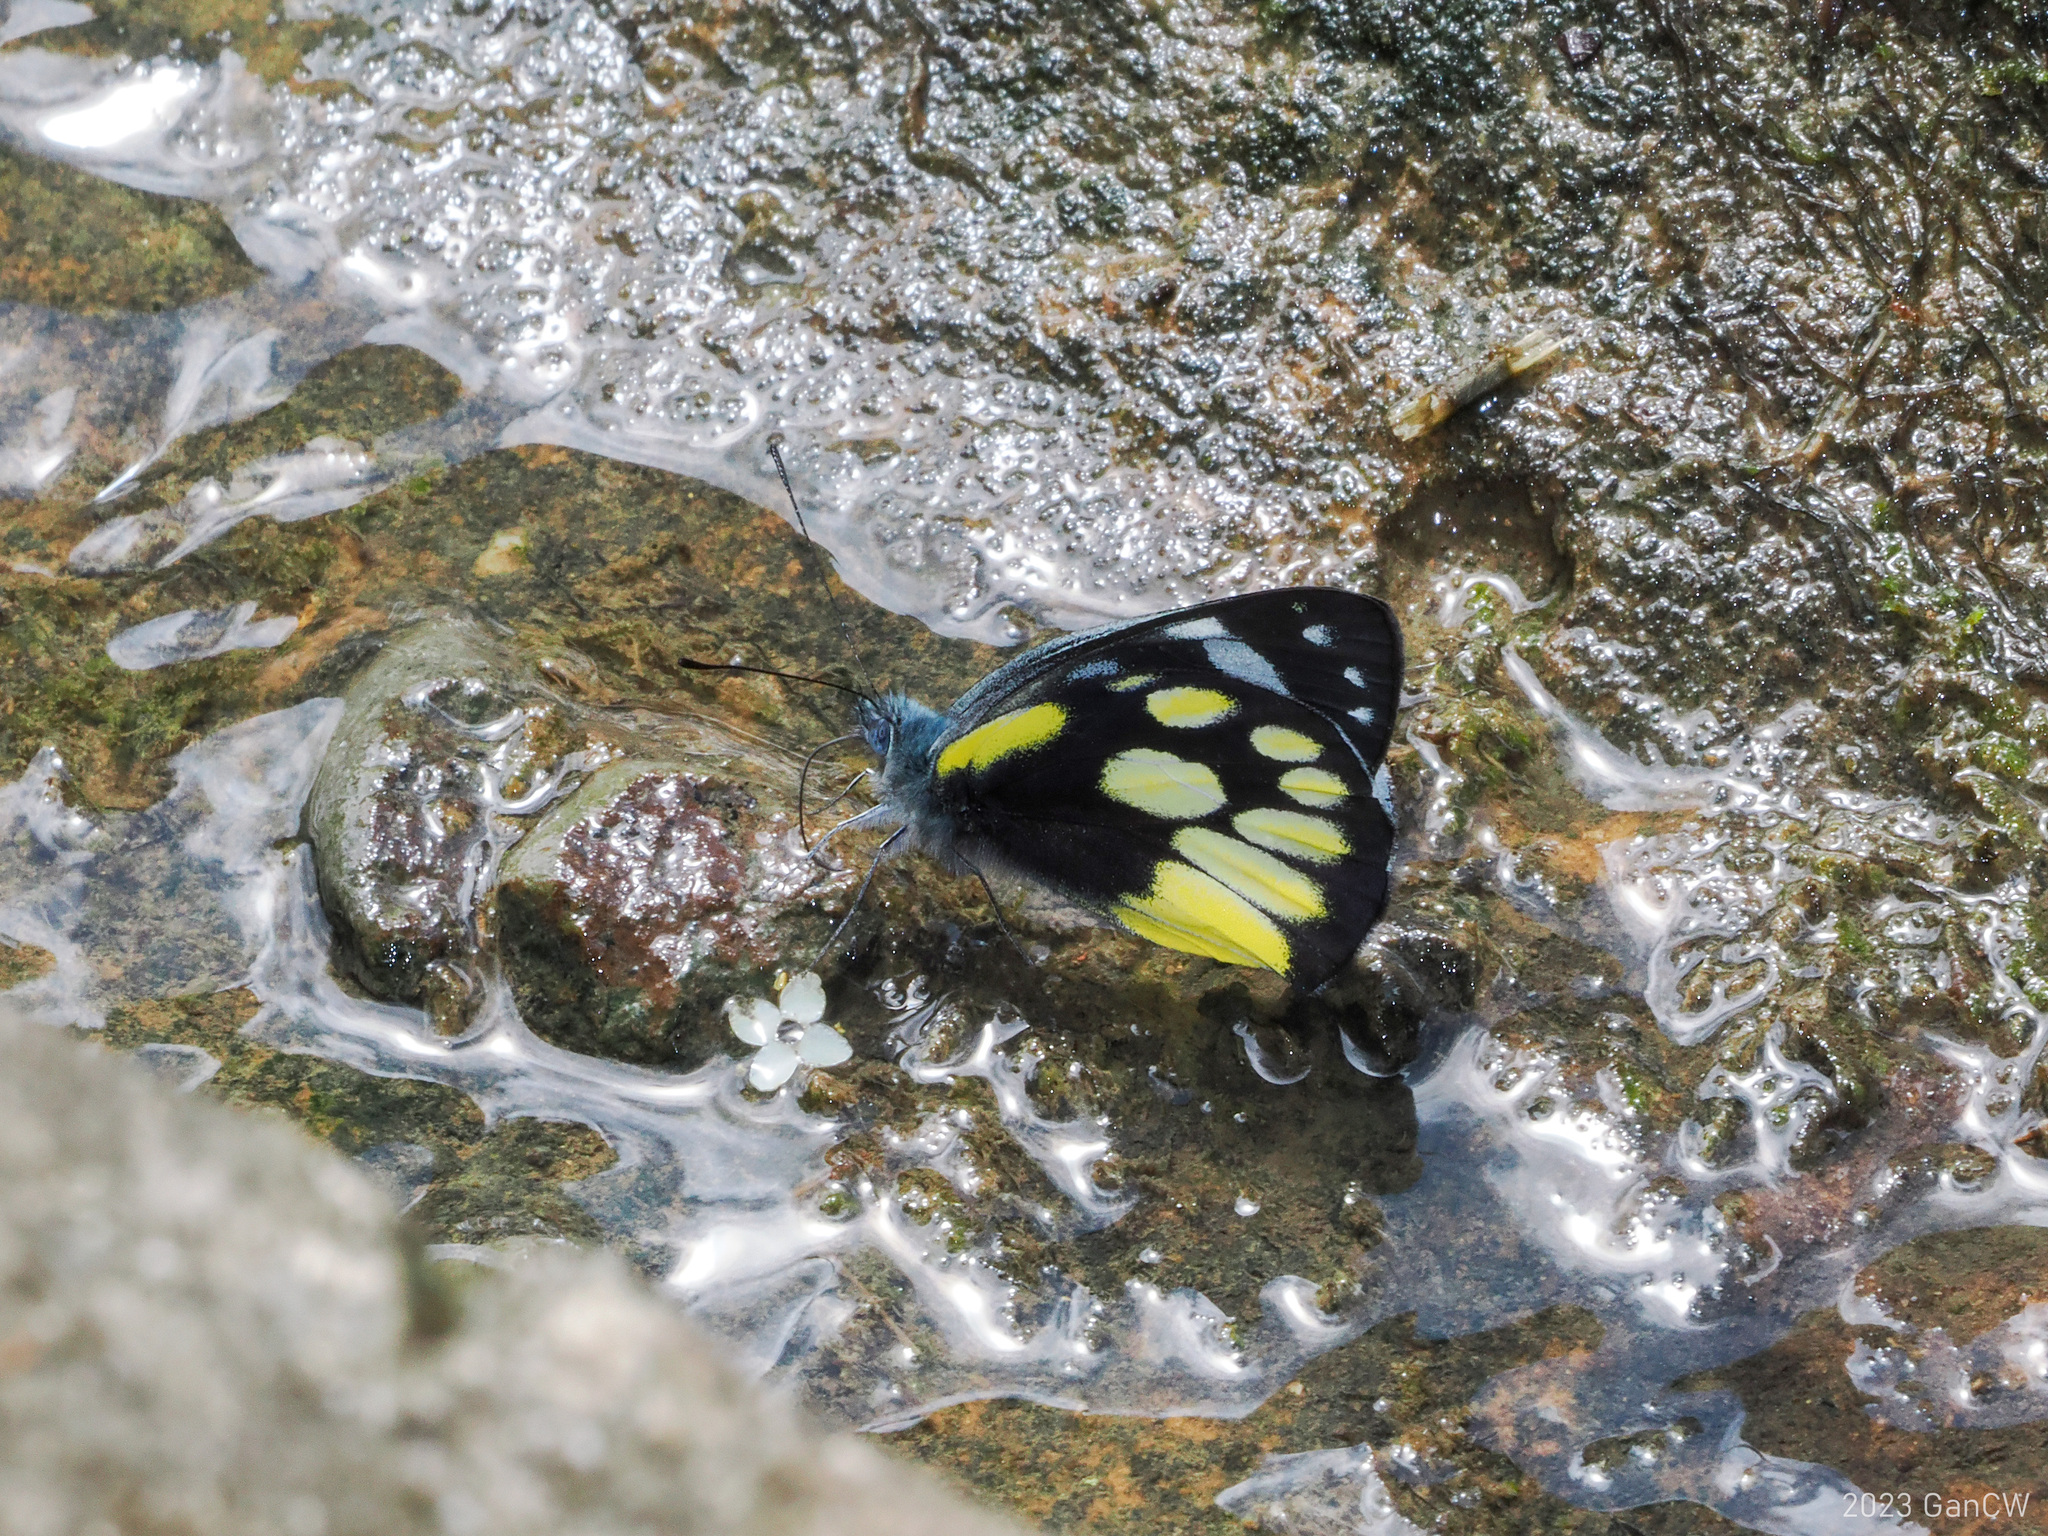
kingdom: Animalia
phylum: Arthropoda
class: Insecta
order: Lepidoptera
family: Pieridae
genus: Delias
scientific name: Delias cinerascens
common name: Kinabalu jezebel
